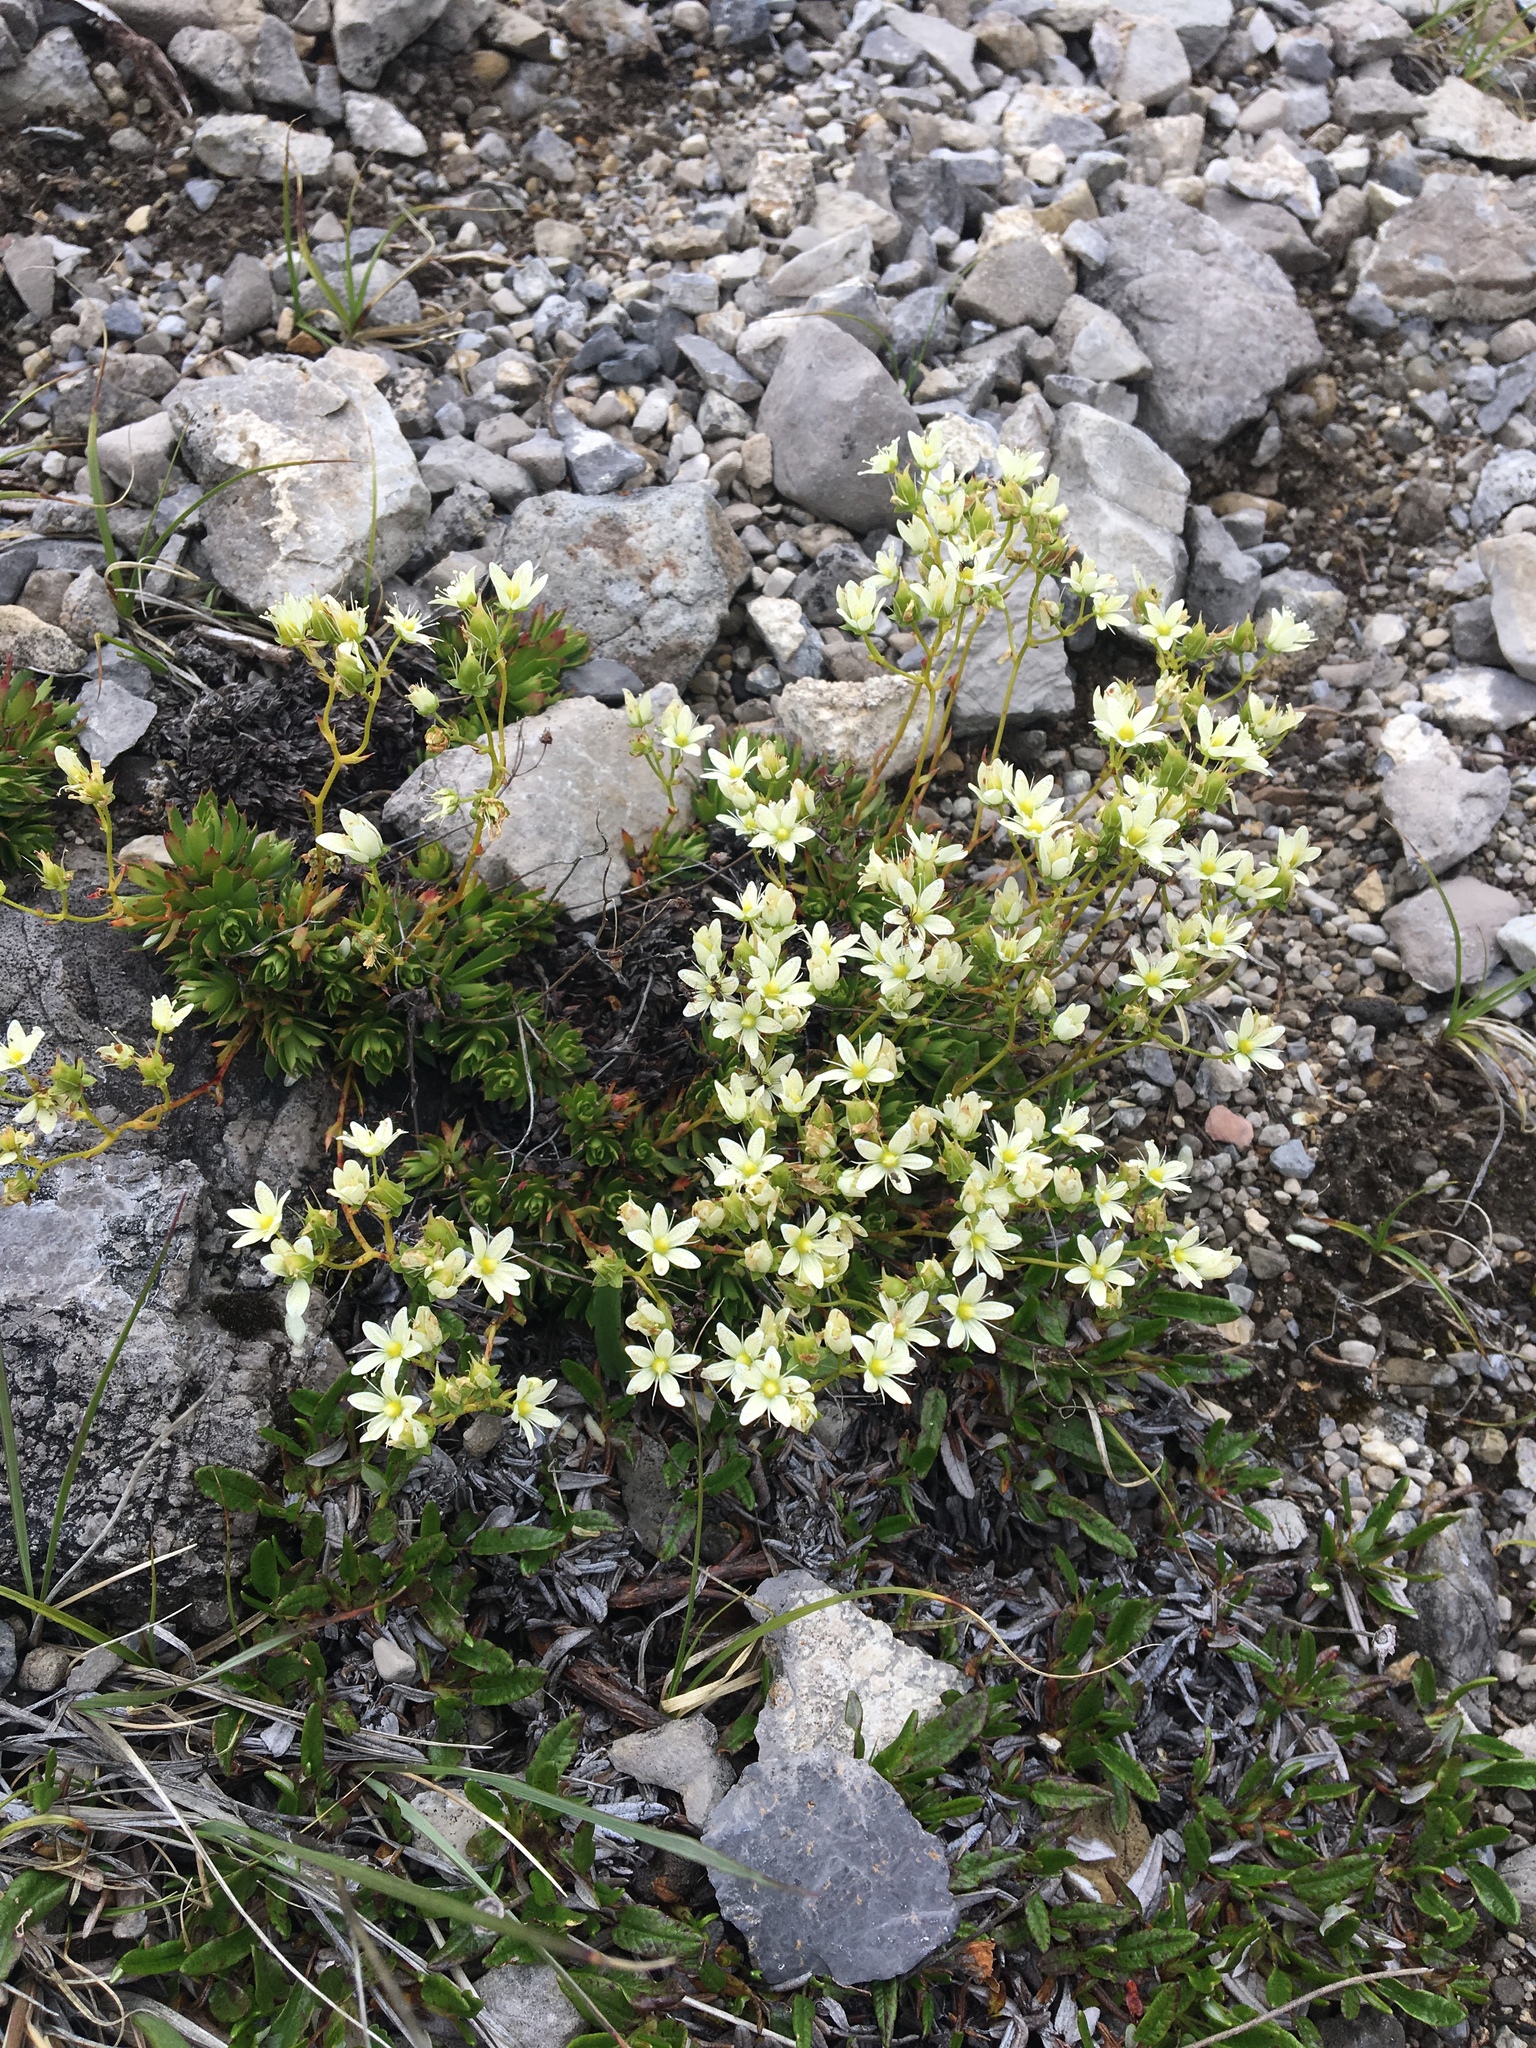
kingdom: Plantae
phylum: Tracheophyta
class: Magnoliopsida
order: Saxifragales
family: Saxifragaceae
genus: Saxifraga
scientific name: Saxifraga tricuspidata
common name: Prickly saxifrage
